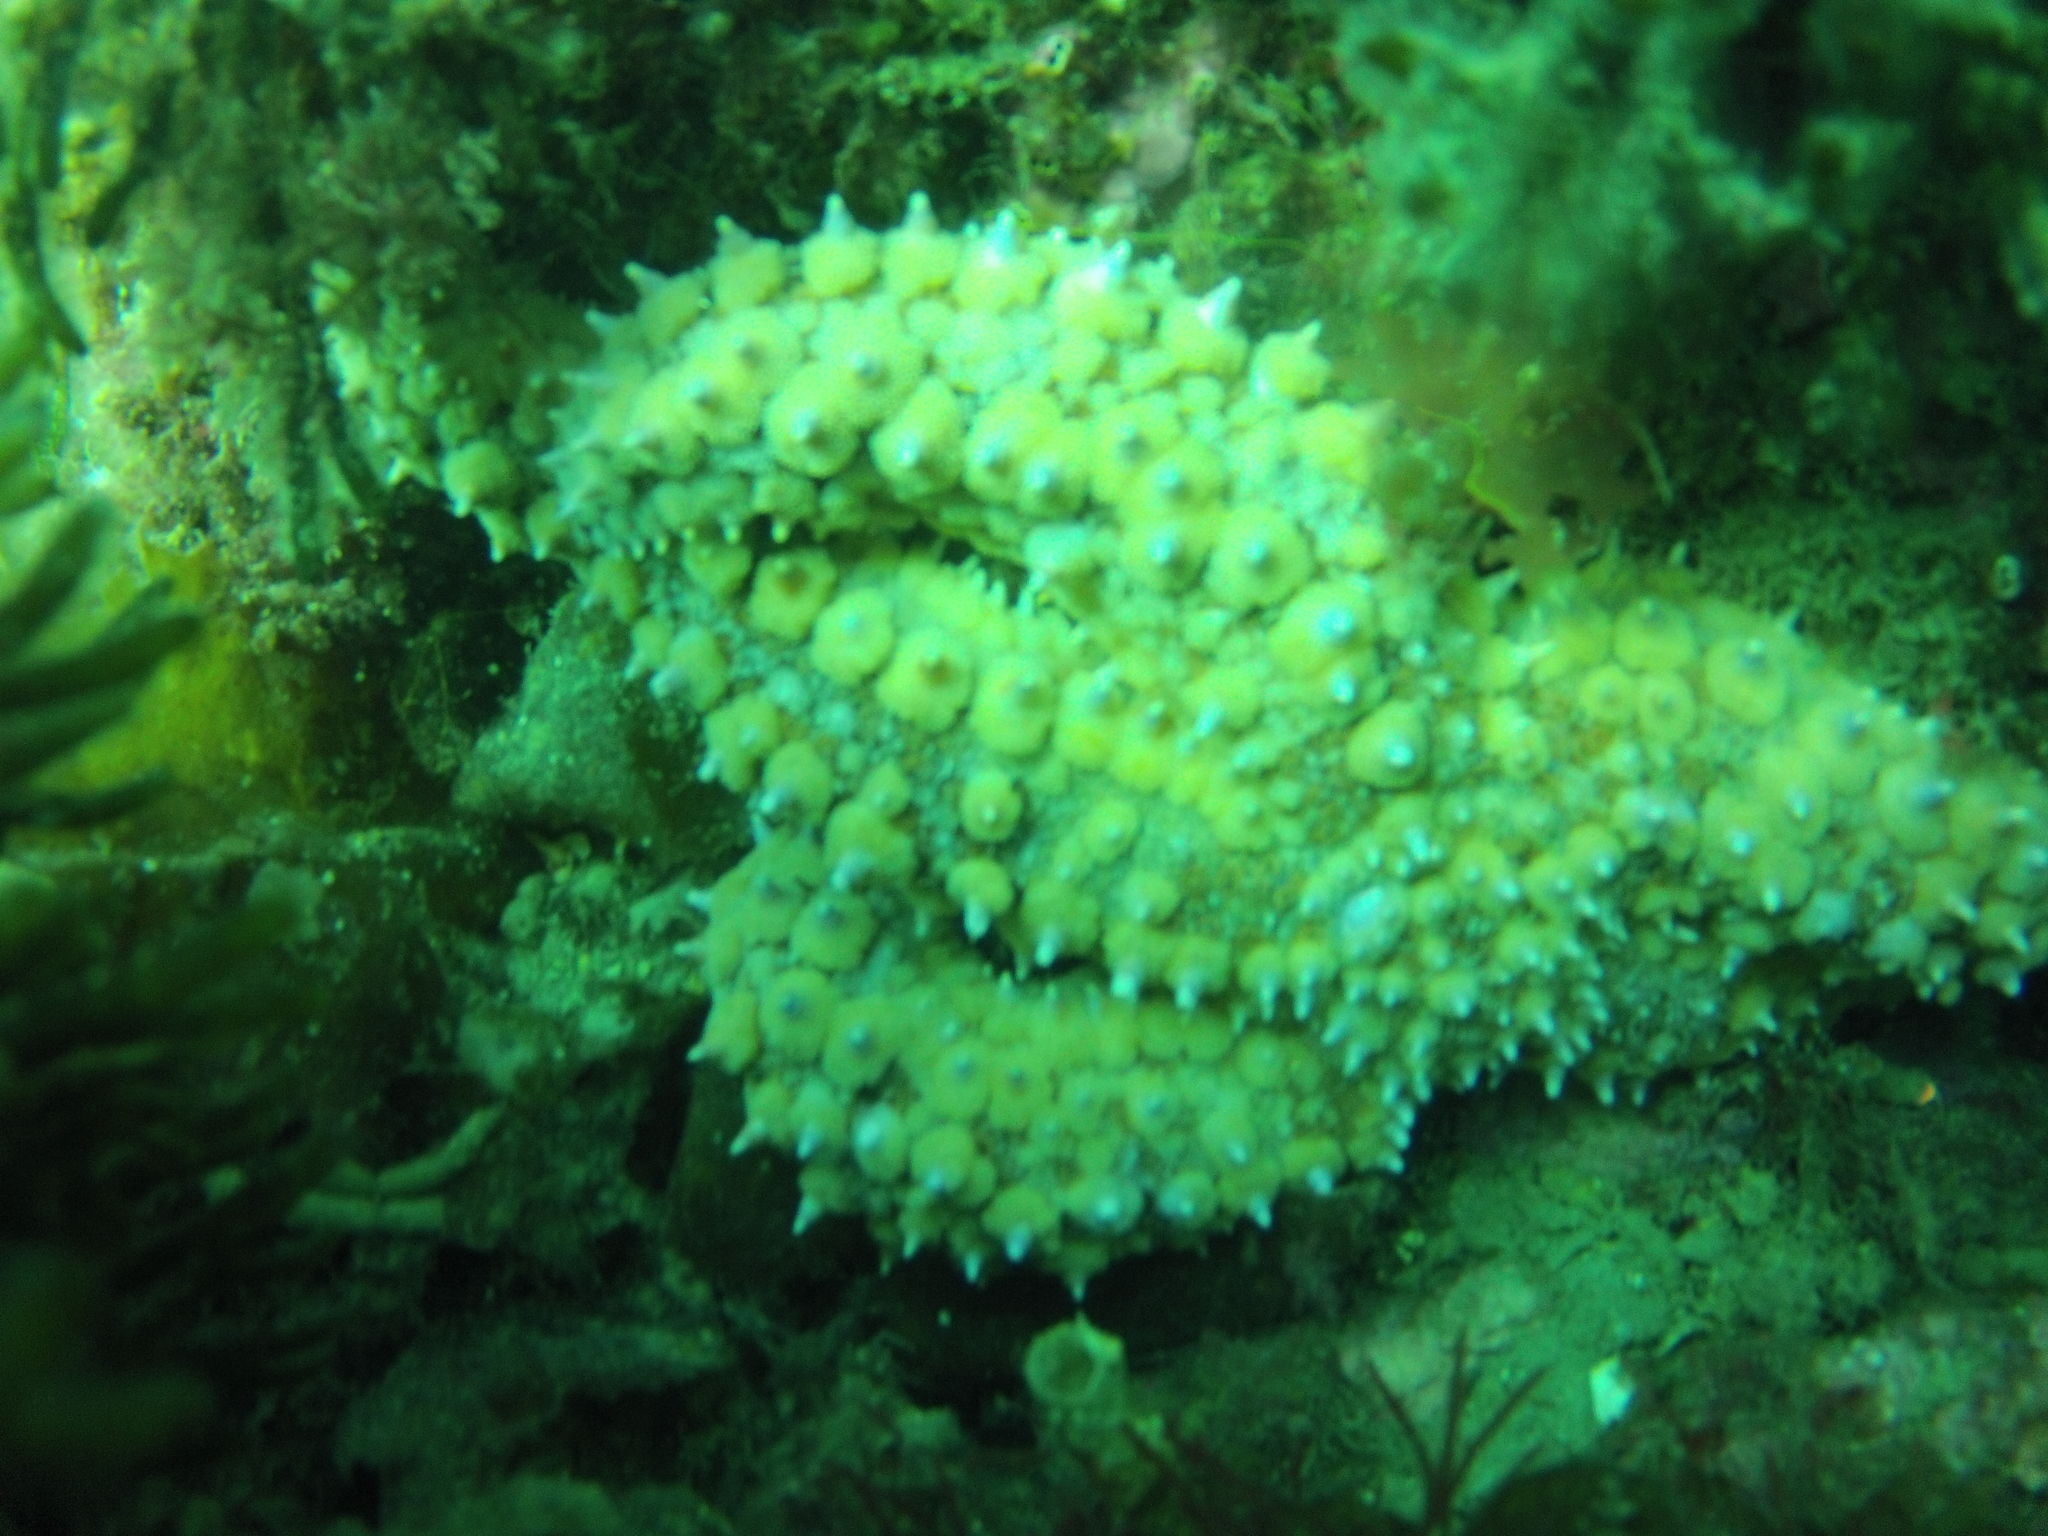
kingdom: Animalia
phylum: Echinodermata
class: Asteroidea
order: Forcipulatida
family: Asteriidae
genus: Marthasterias
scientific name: Marthasterias glacialis
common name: Spiny starfish
